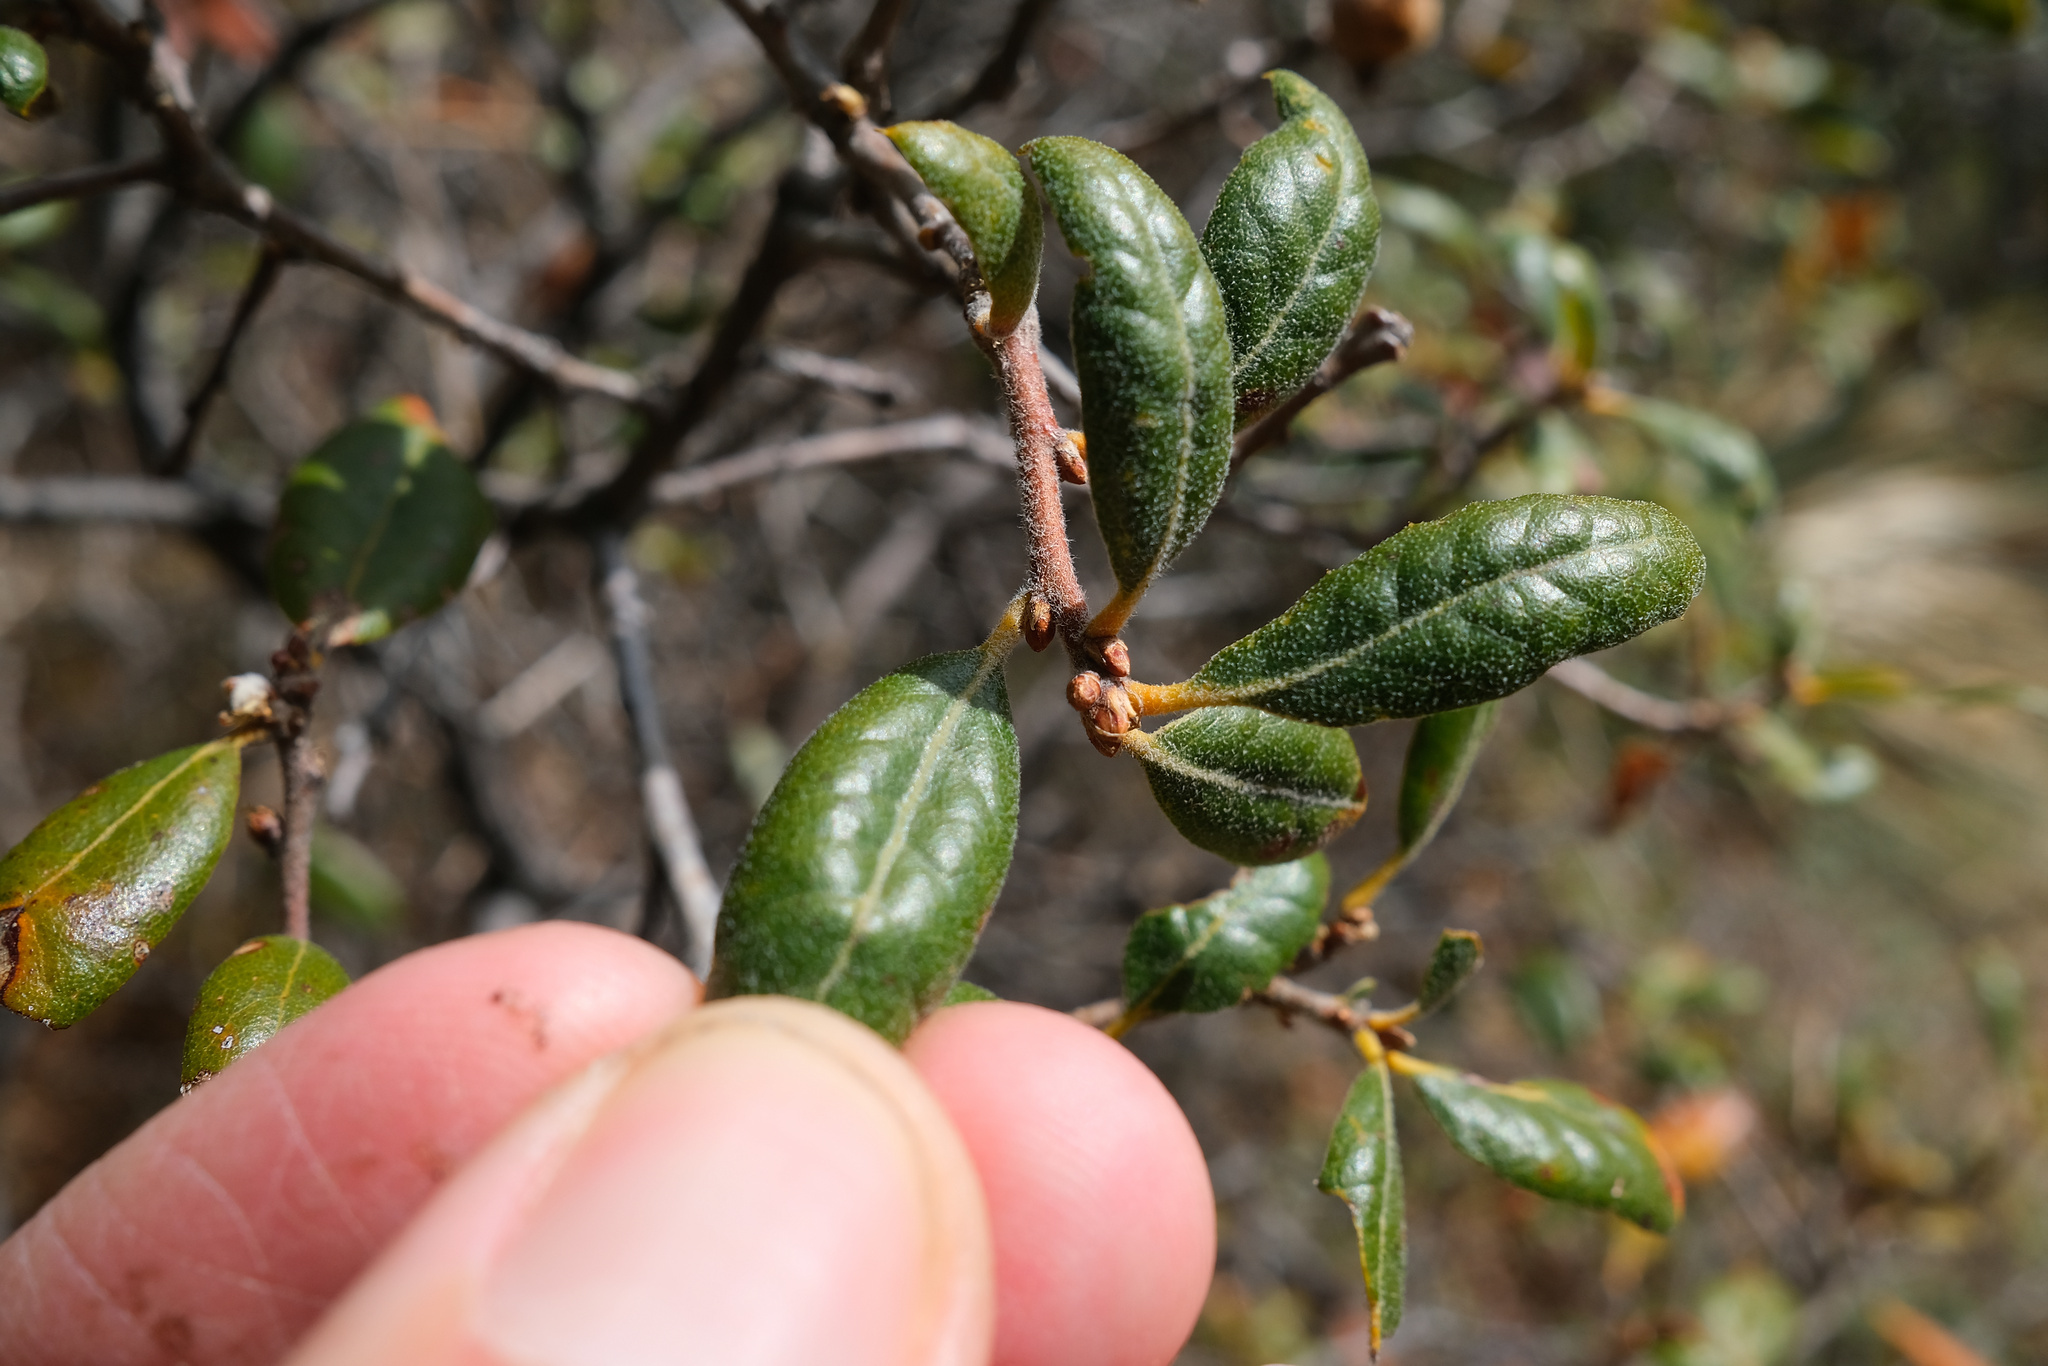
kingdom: Plantae
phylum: Tracheophyta
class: Magnoliopsida
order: Fagales
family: Fagaceae
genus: Quercus
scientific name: Quercus durata
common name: Leather oak
